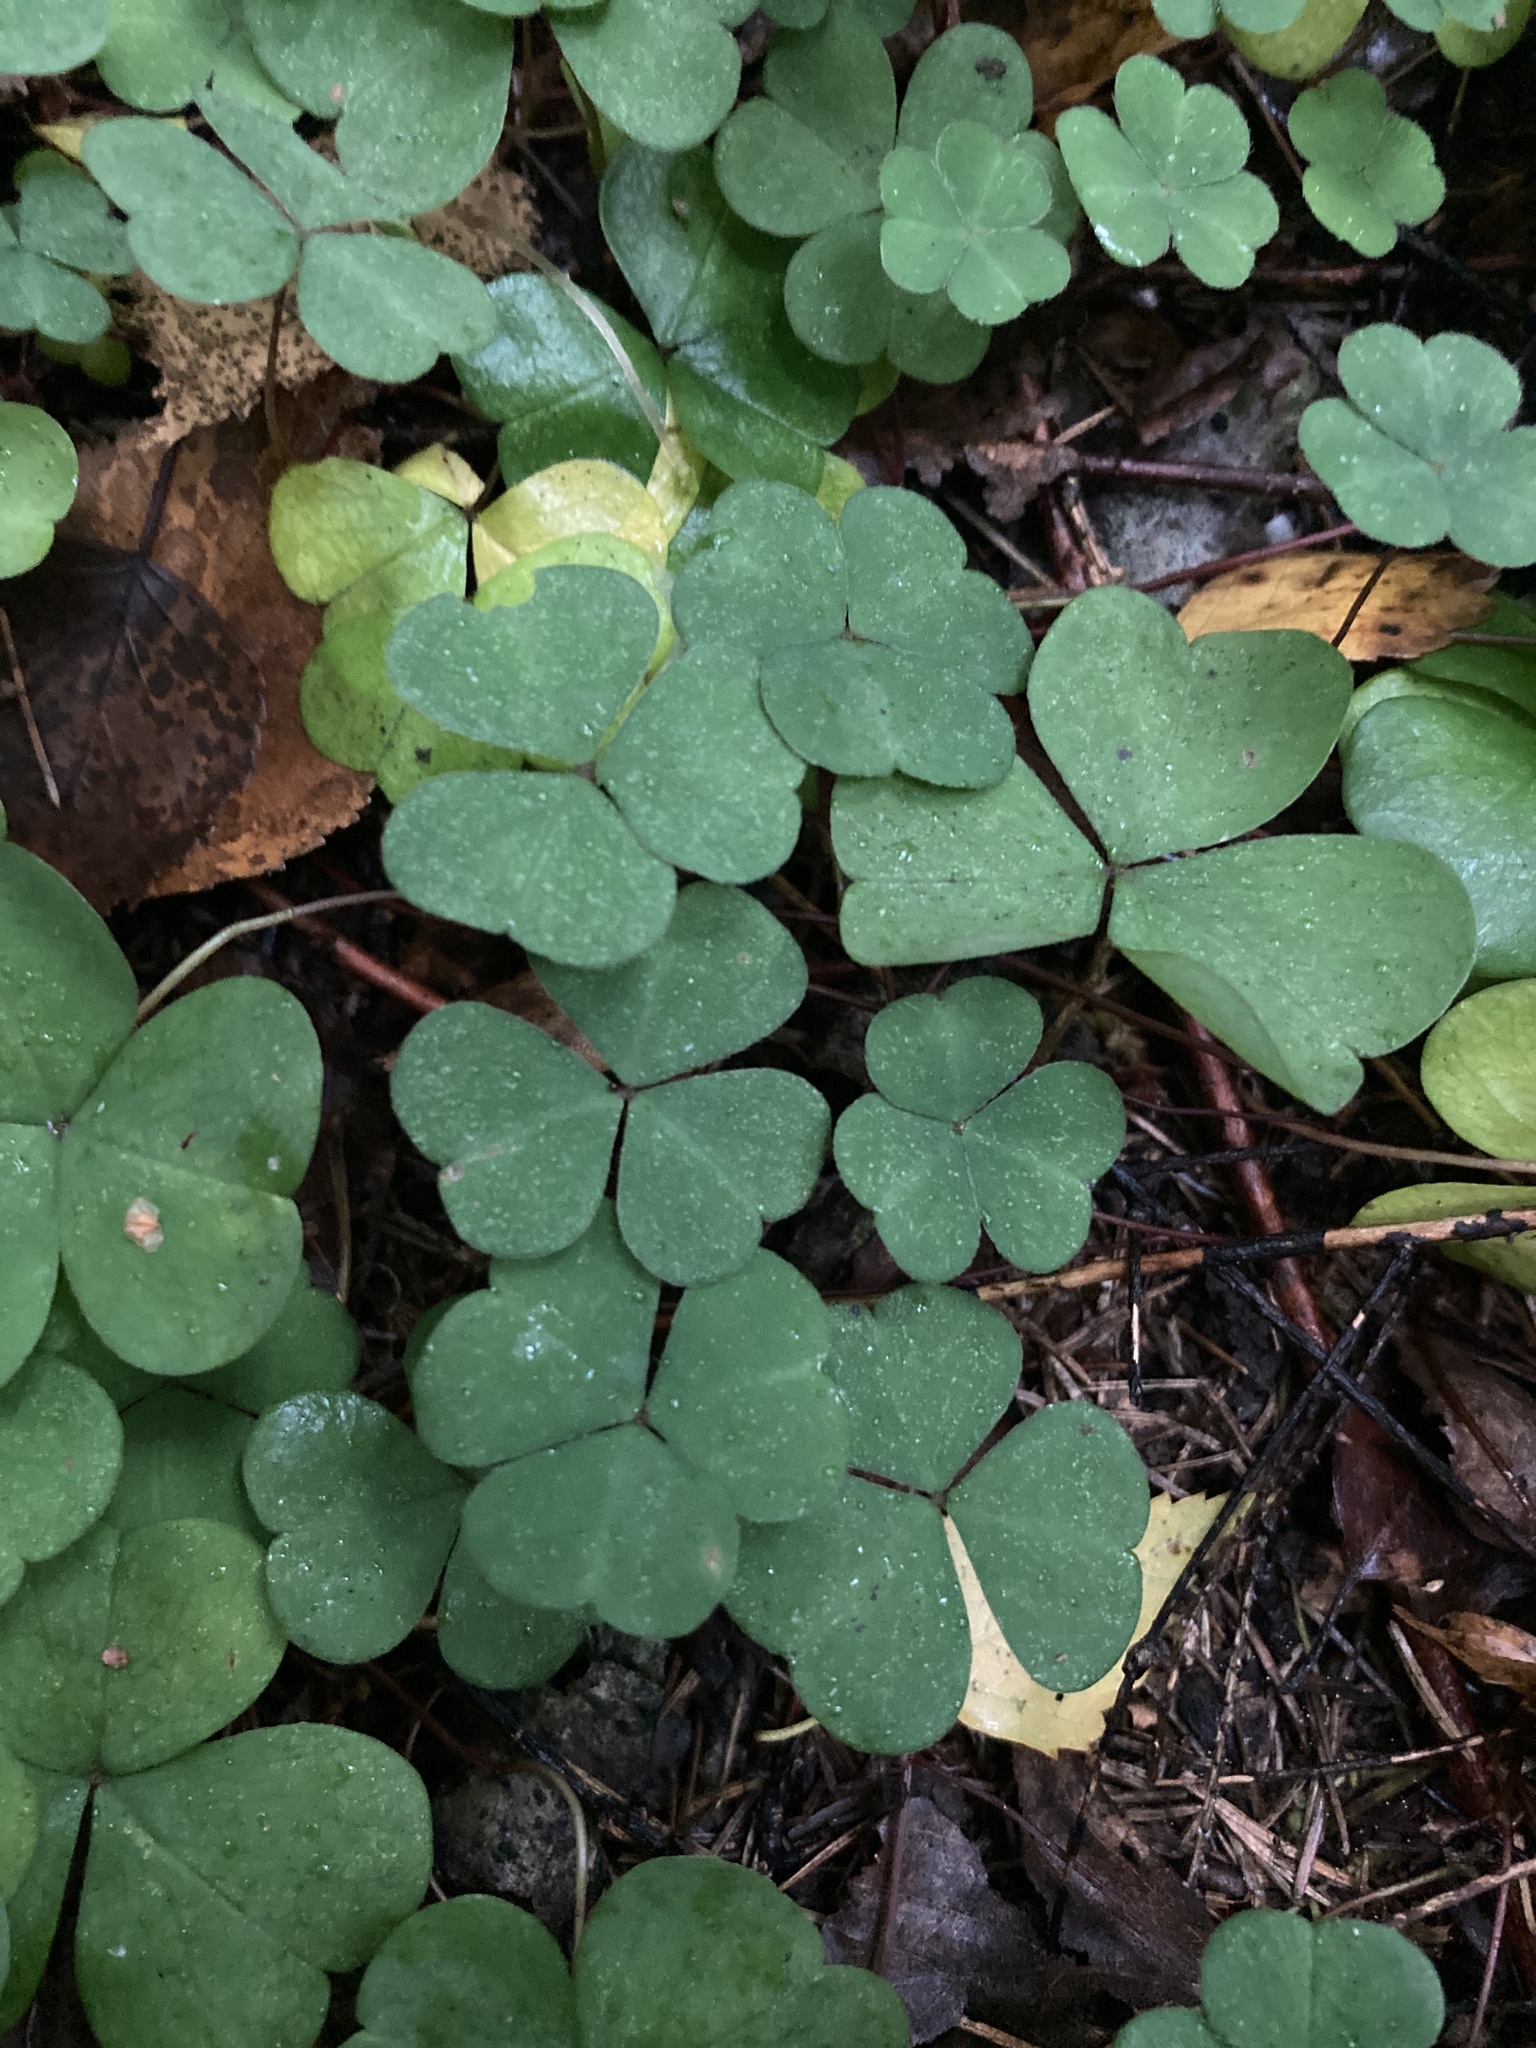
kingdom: Plantae
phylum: Tracheophyta
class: Magnoliopsida
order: Oxalidales
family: Oxalidaceae
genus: Oxalis
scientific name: Oxalis acetosella
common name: Wood-sorrel
